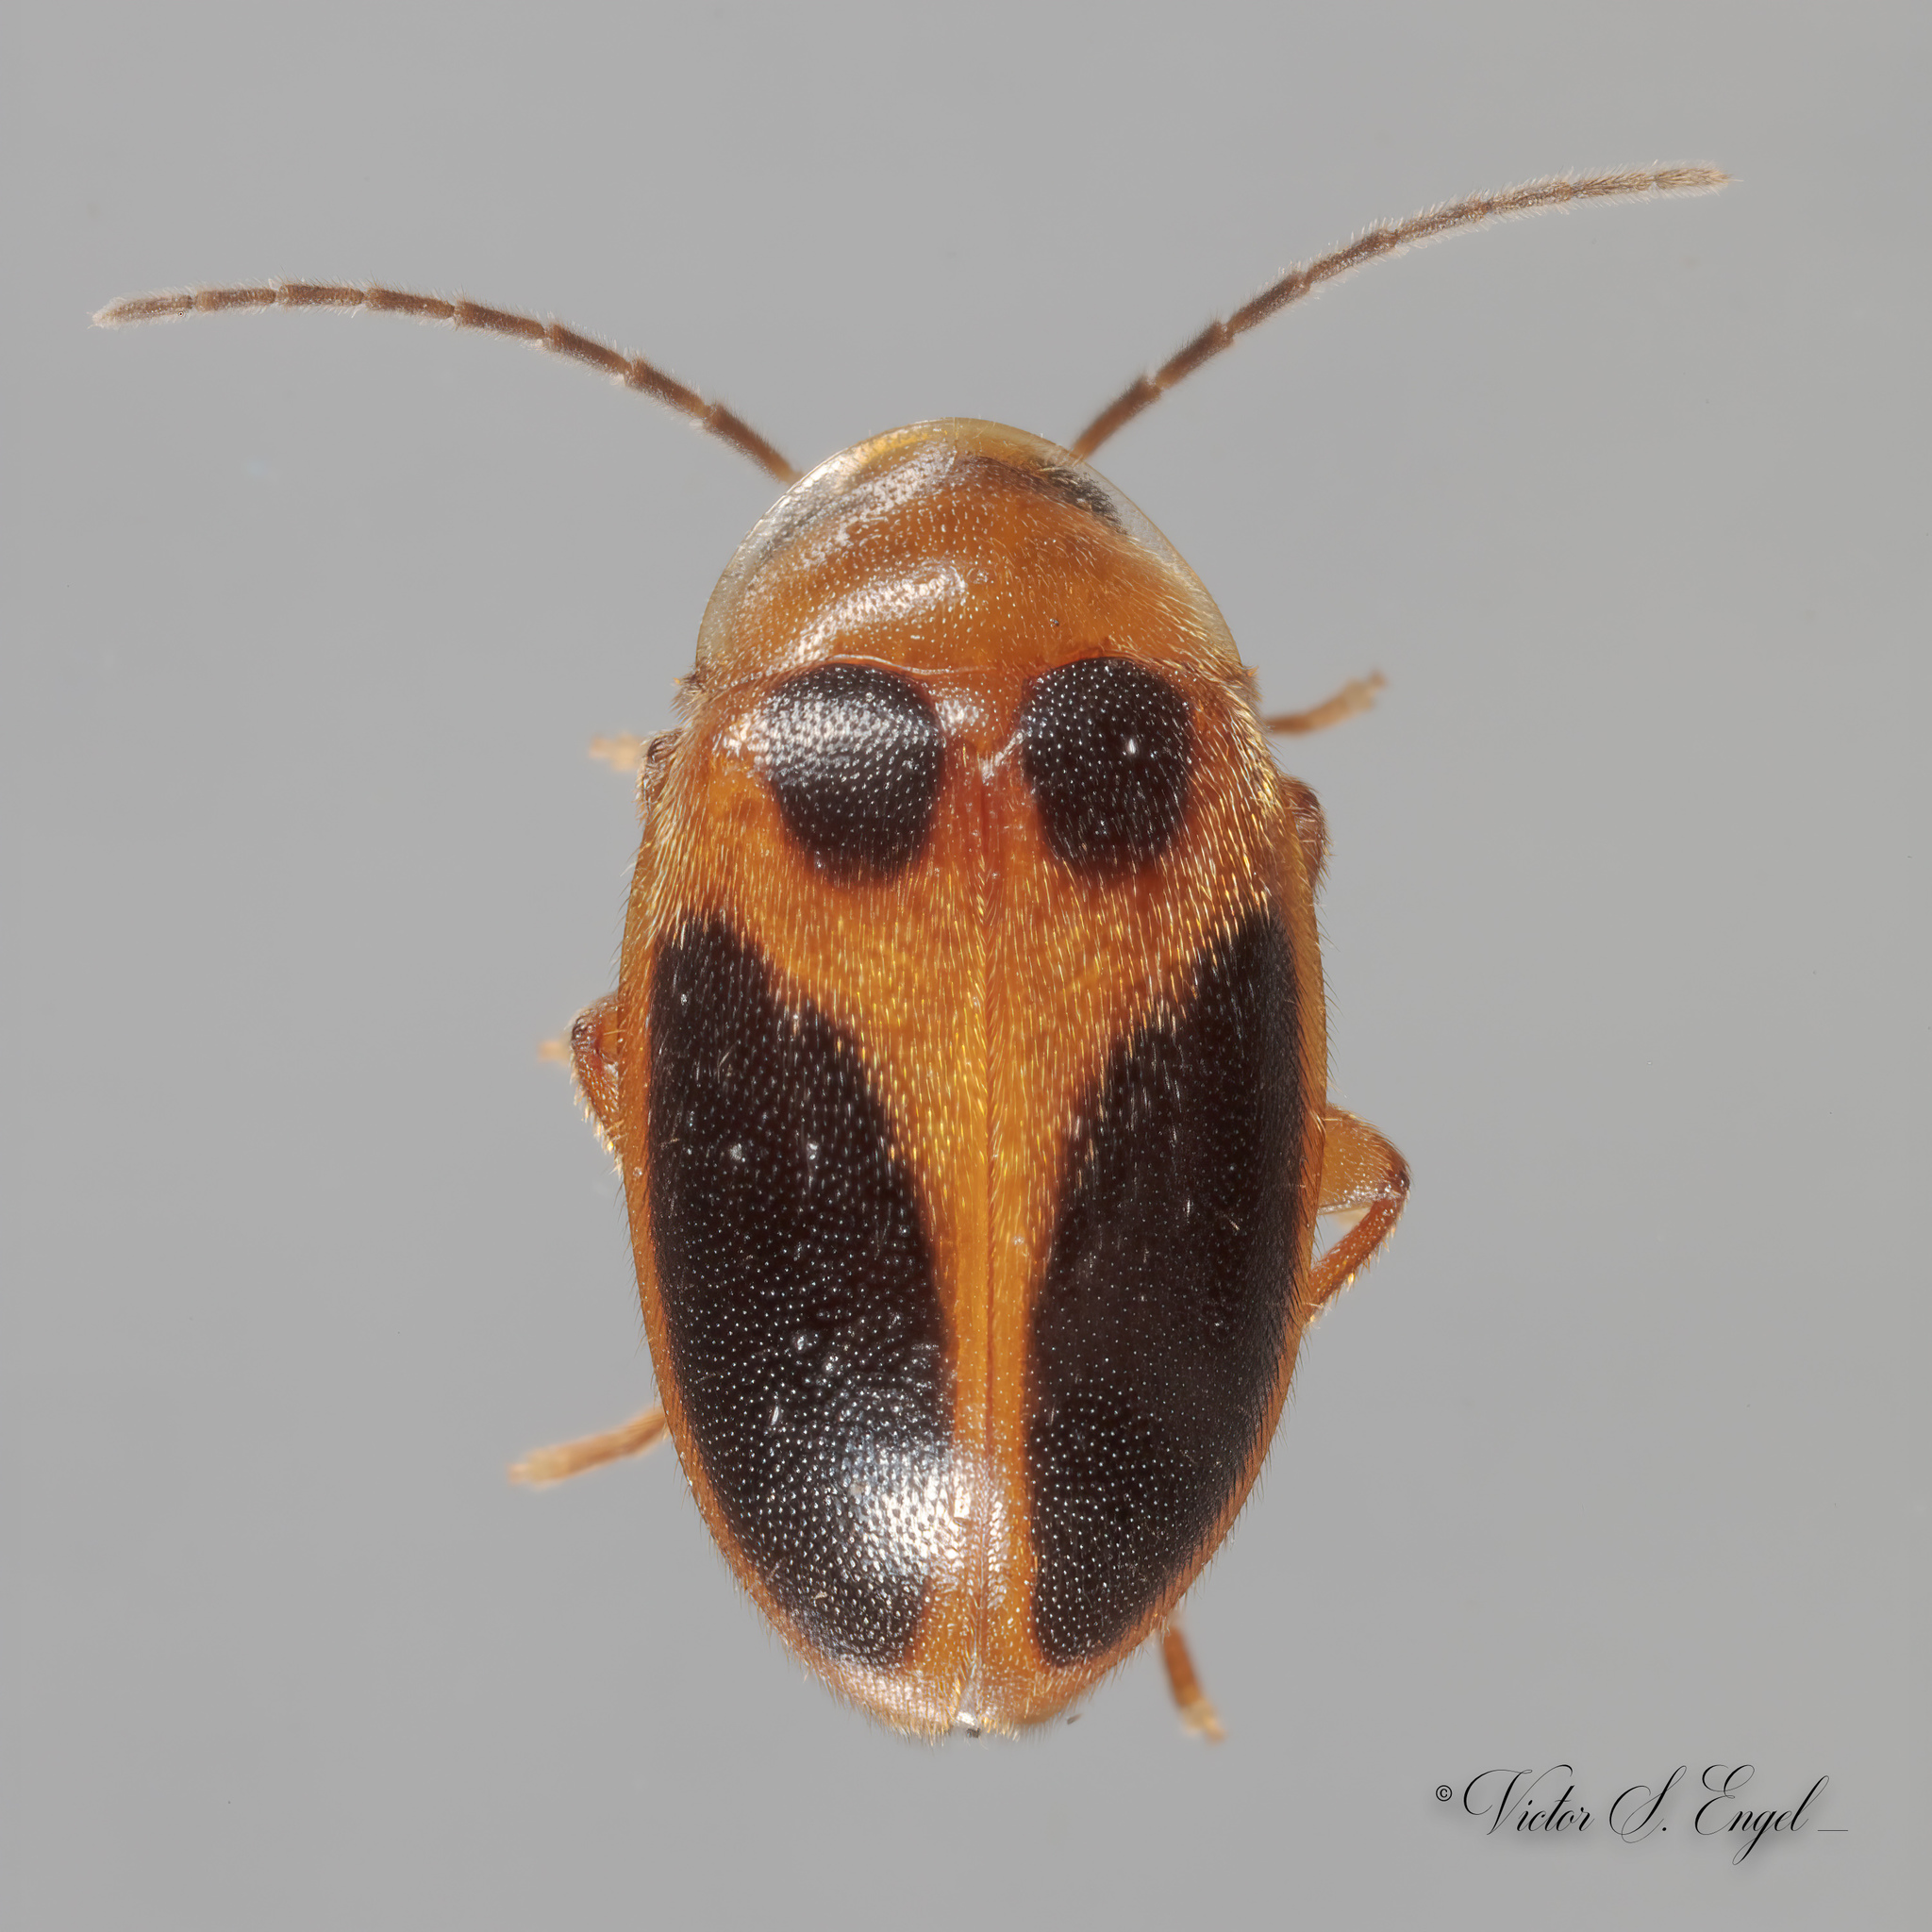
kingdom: Animalia
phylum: Arthropoda
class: Insecta
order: Coleoptera
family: Scirtidae
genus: Sacodes
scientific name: Sacodes pulchella
